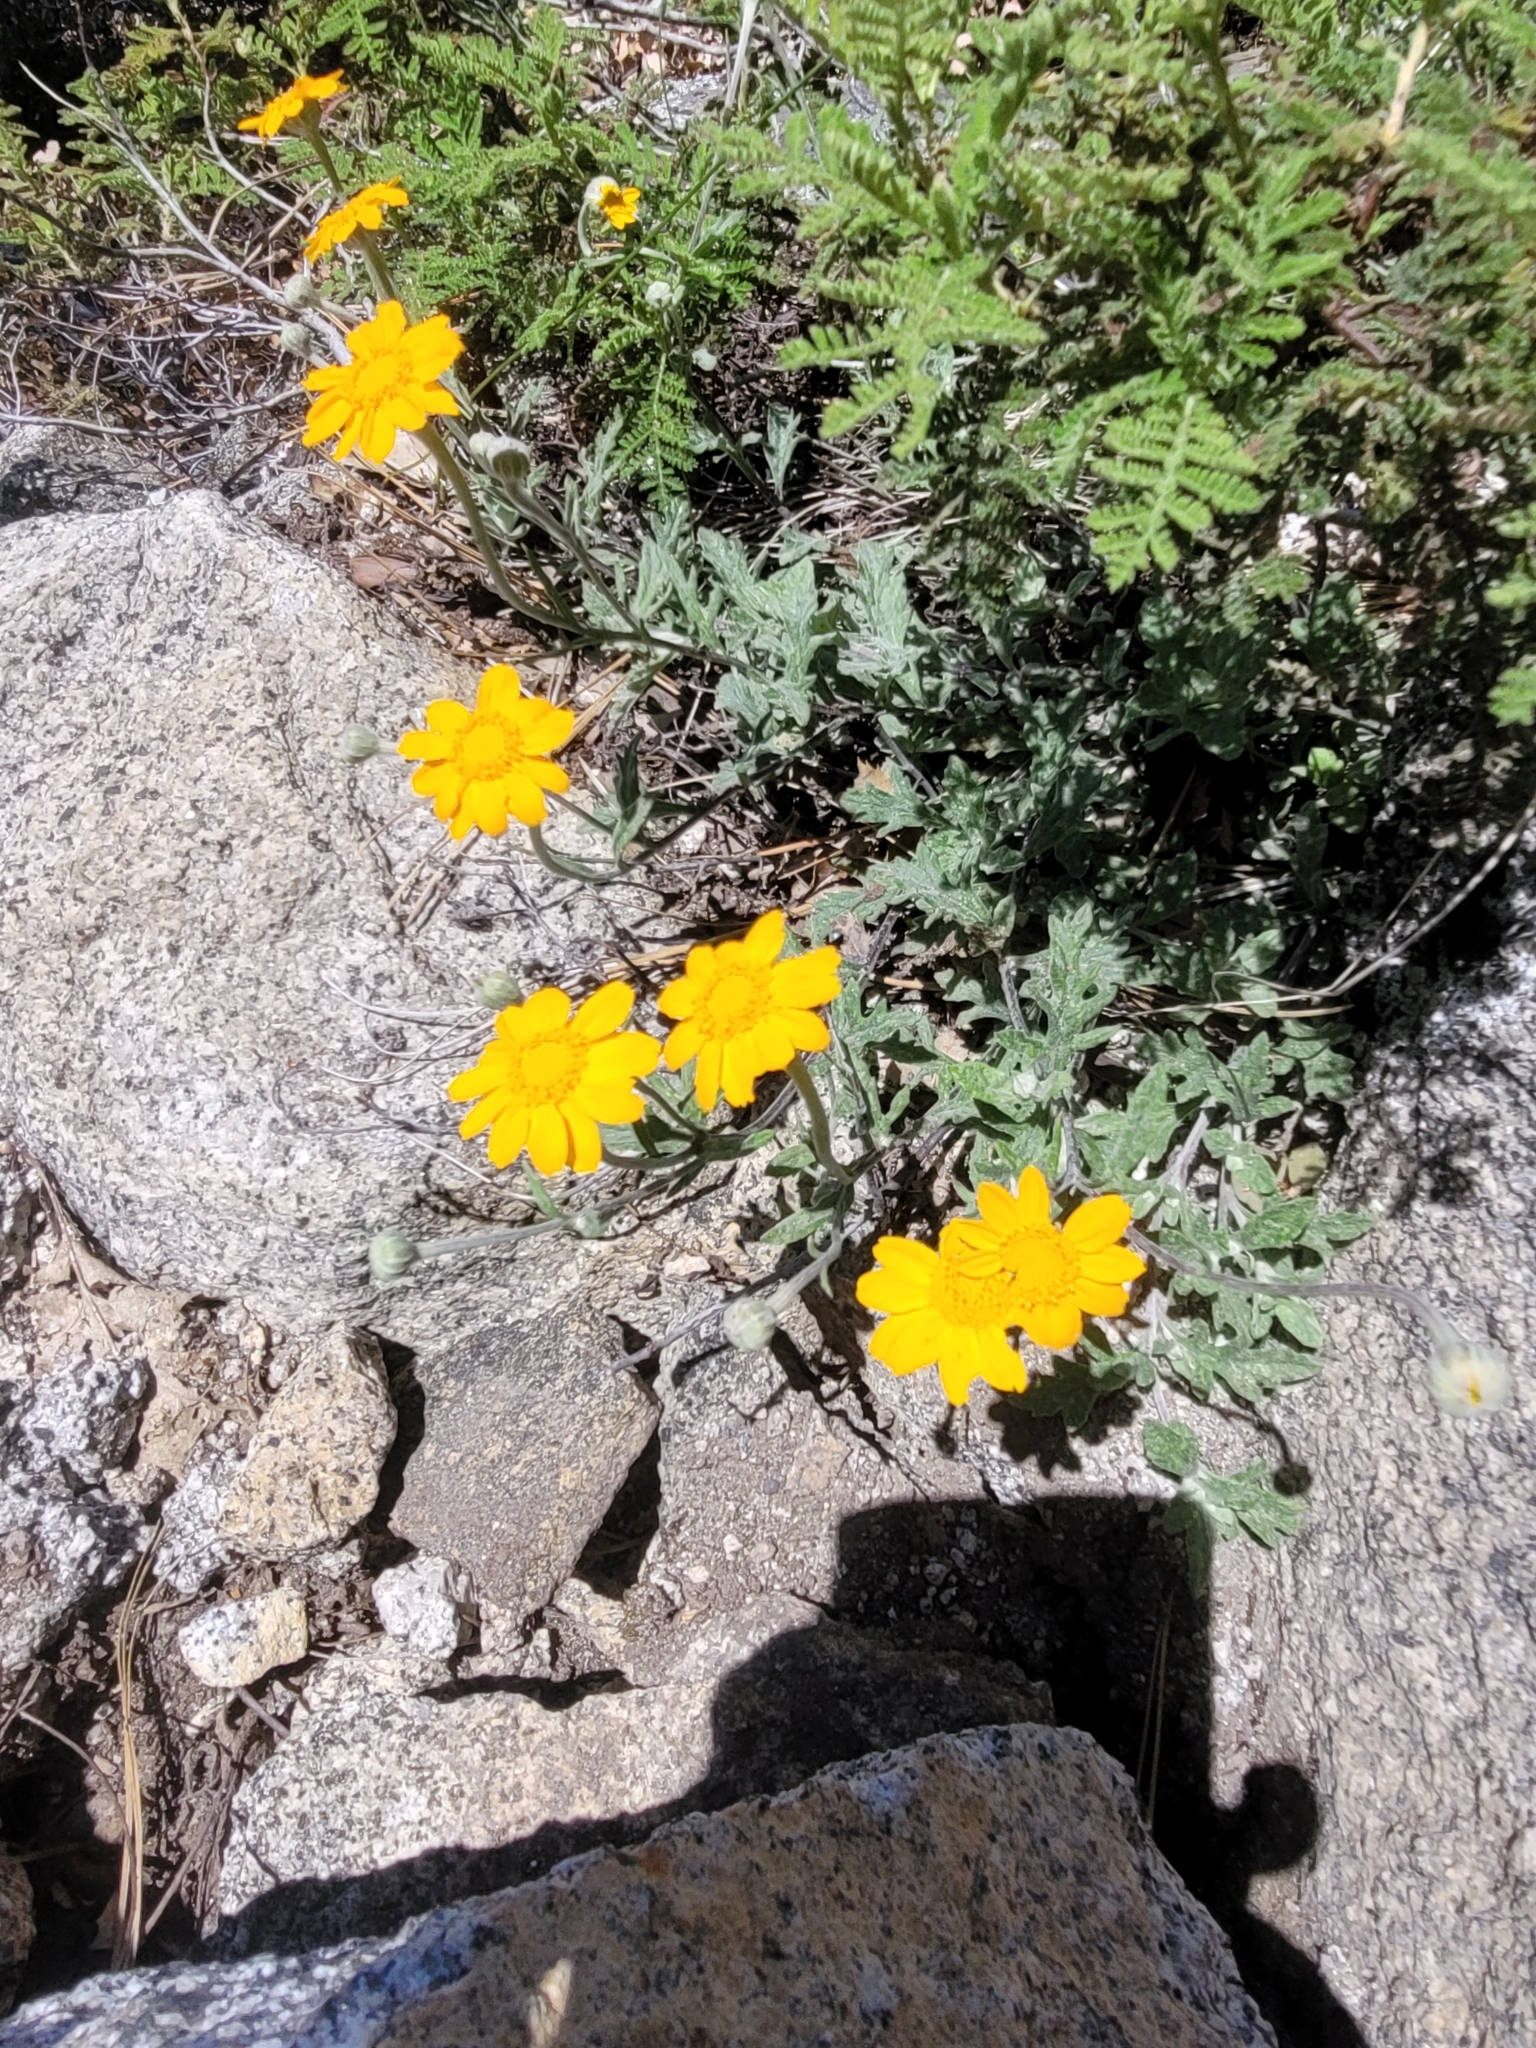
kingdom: Plantae
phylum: Tracheophyta
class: Magnoliopsida
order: Asterales
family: Asteraceae
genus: Eriophyllum
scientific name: Eriophyllum lanatum
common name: Common woolly-sunflower
